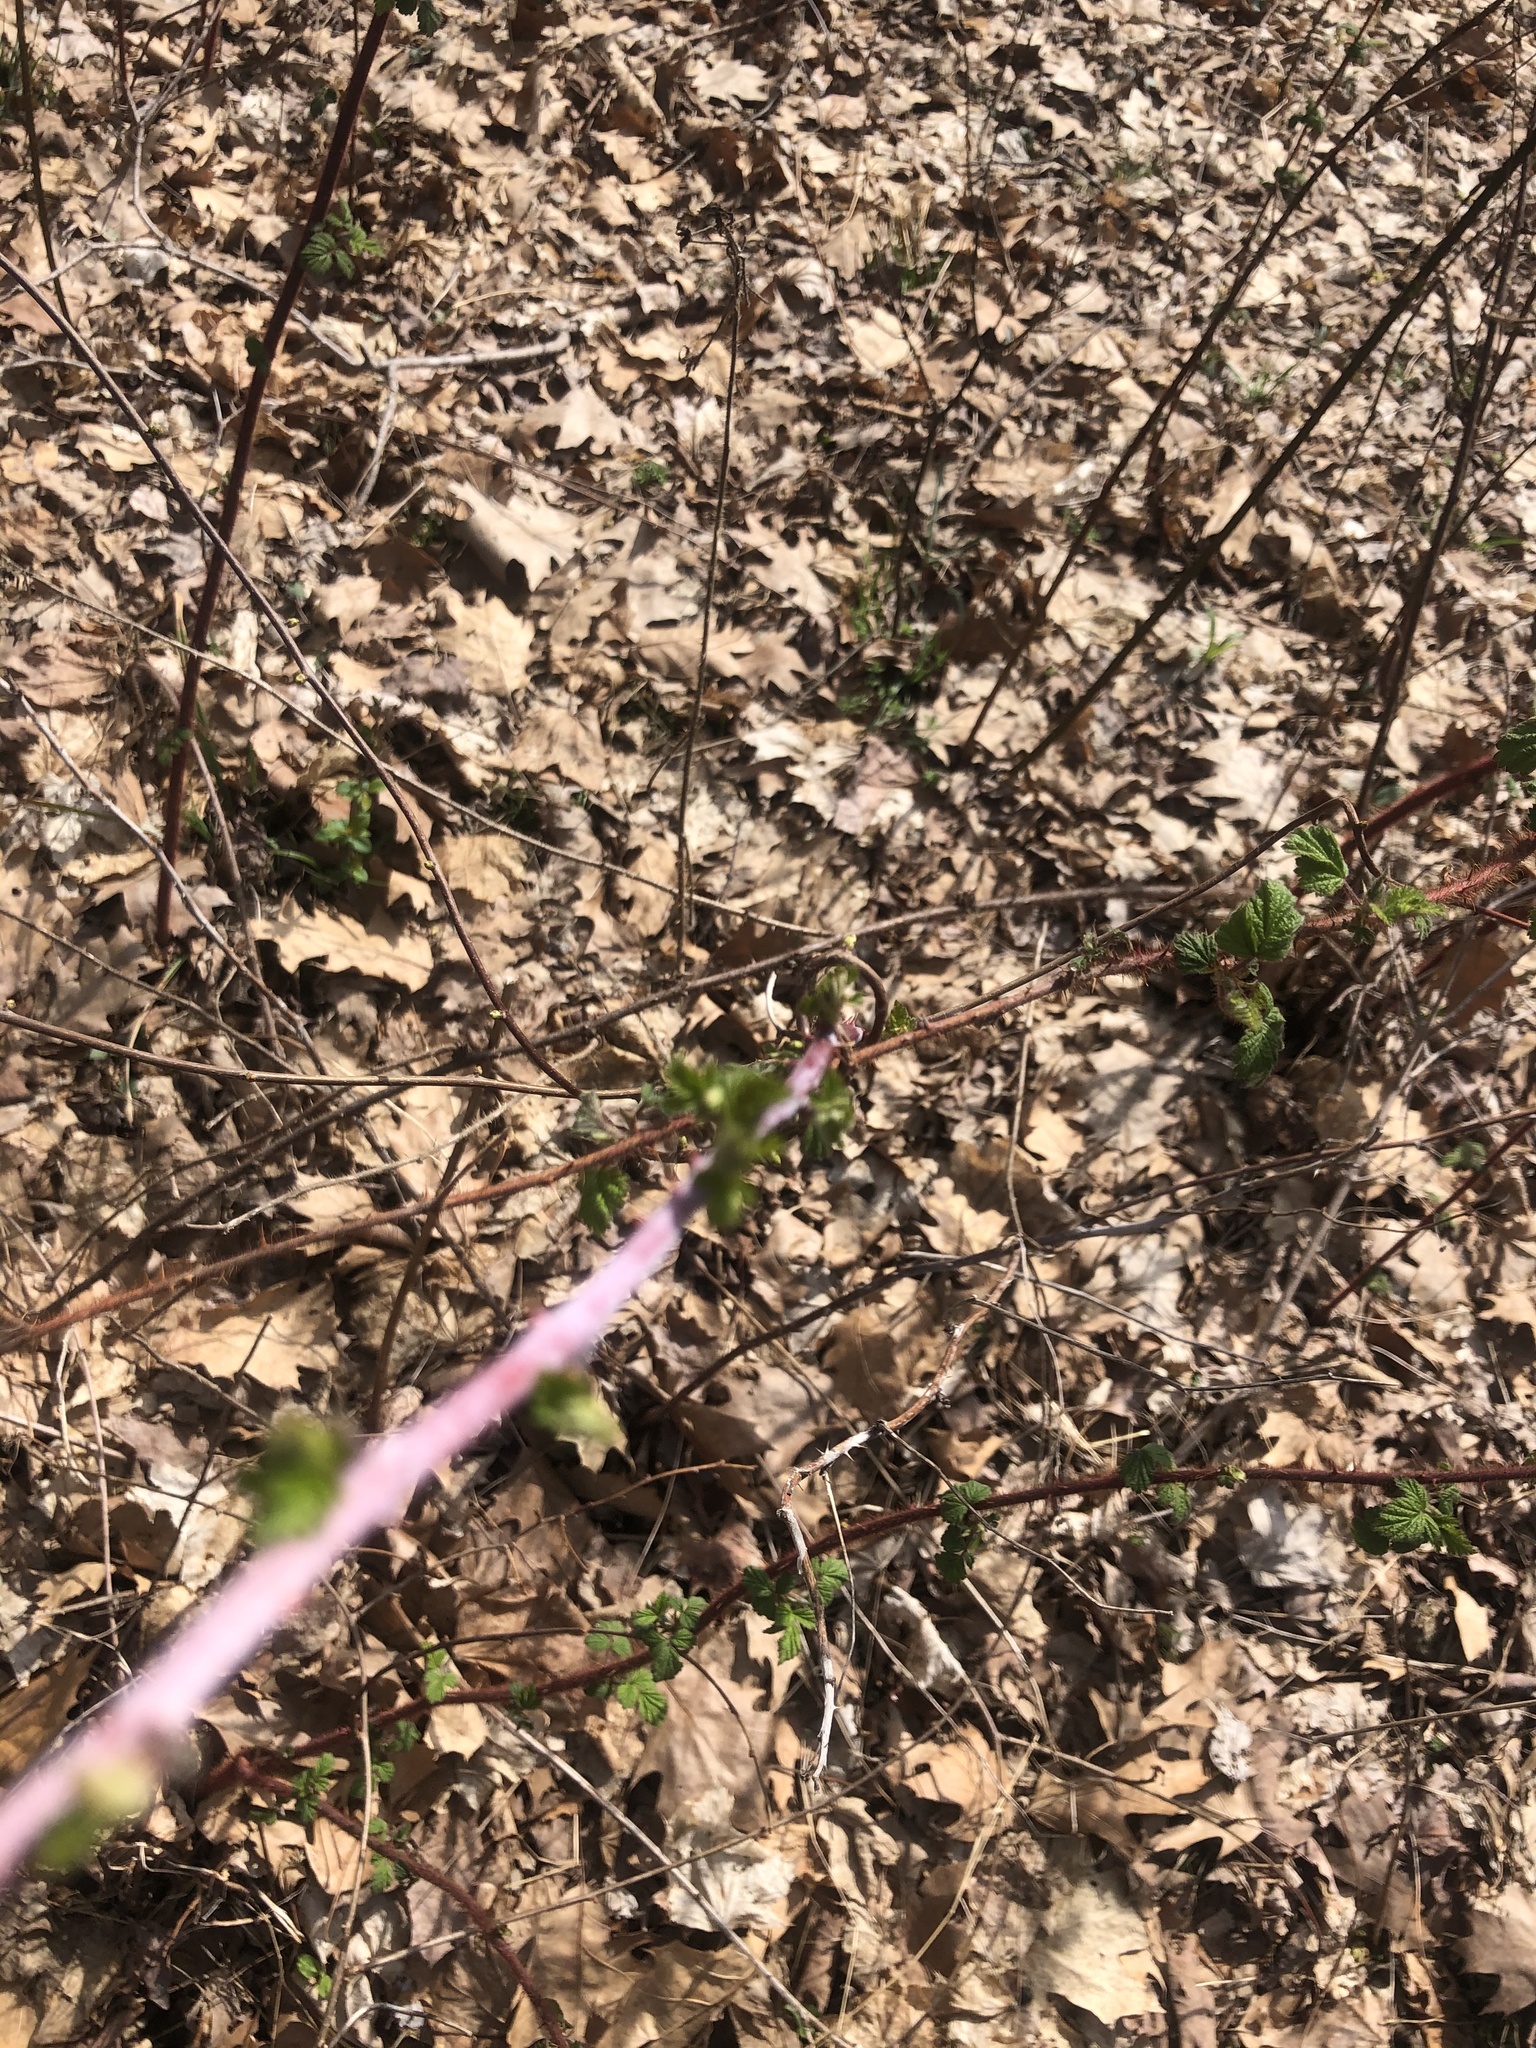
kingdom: Plantae
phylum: Tracheophyta
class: Magnoliopsida
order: Rosales
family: Rosaceae
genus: Rubus
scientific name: Rubus occidentalis
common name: Black raspberry
